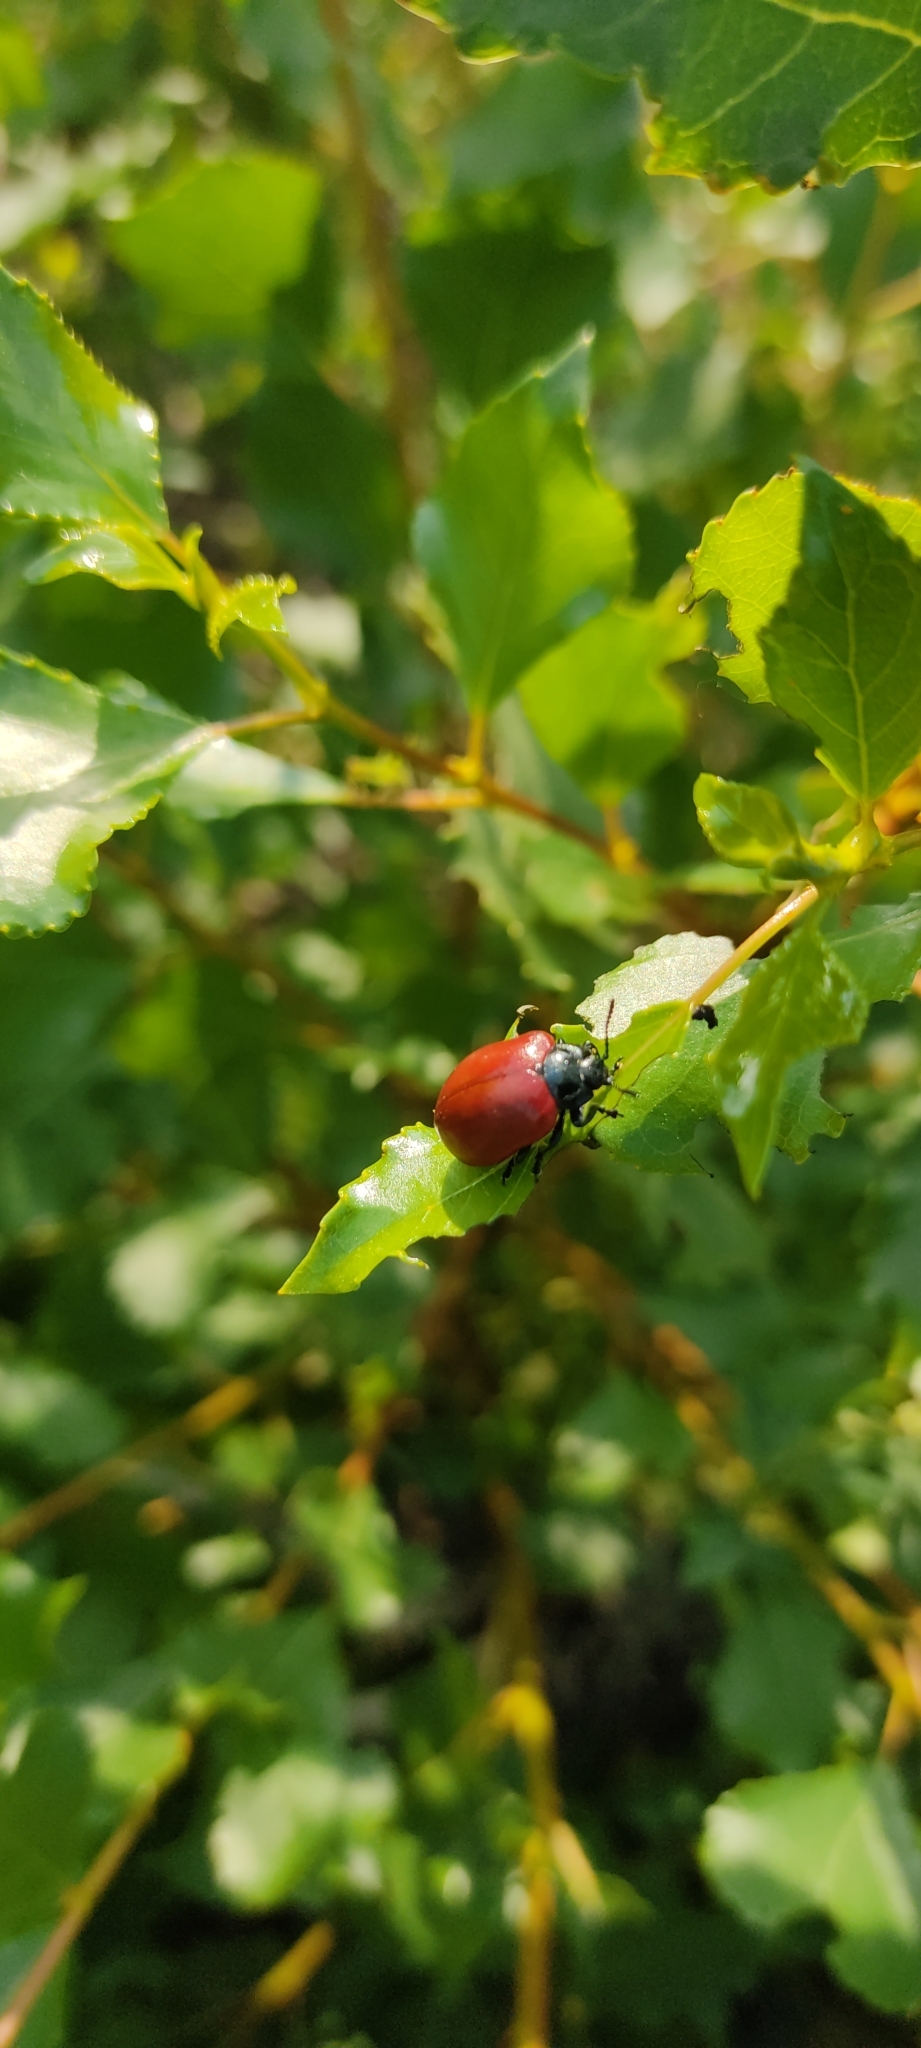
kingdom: Animalia
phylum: Arthropoda
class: Insecta
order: Coleoptera
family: Chrysomelidae
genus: Chrysomela
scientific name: Chrysomela populi
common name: Red poplar leaf beetle
